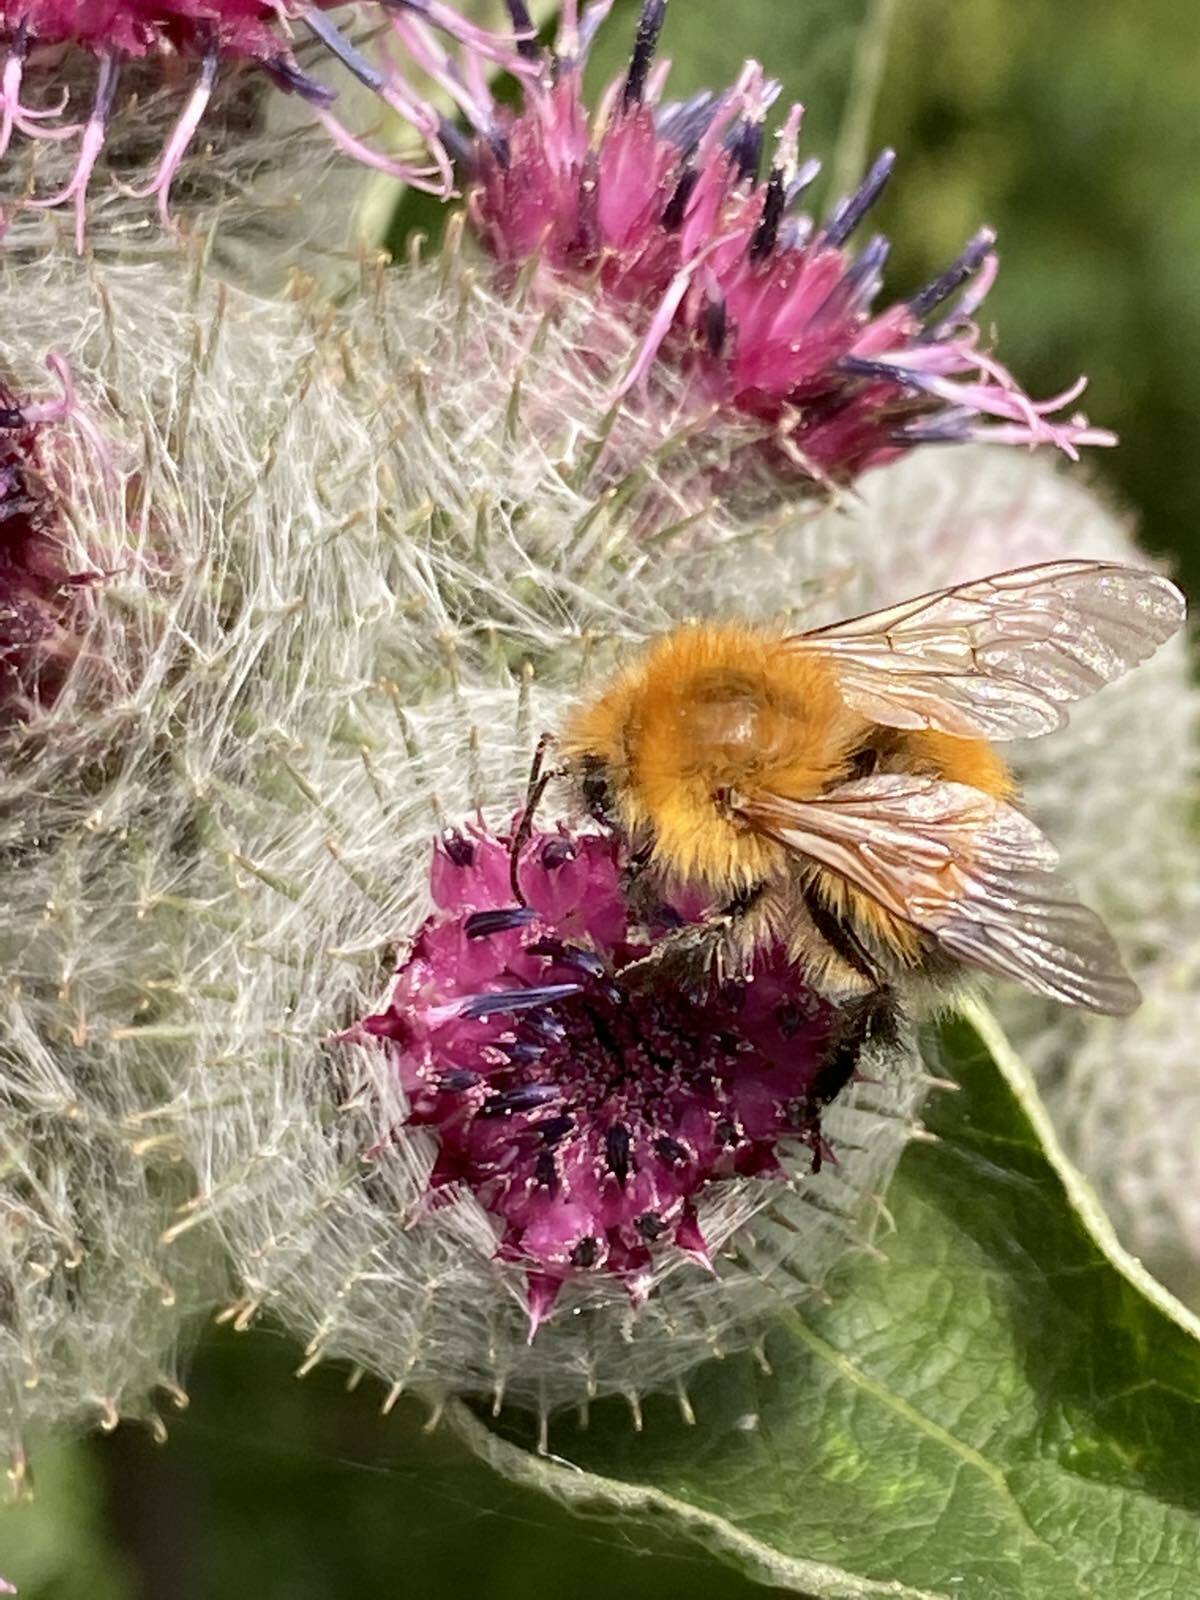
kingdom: Animalia
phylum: Arthropoda
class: Insecta
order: Hymenoptera
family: Apidae
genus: Bombus
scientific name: Bombus hypnorum
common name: New garden bumblebee
